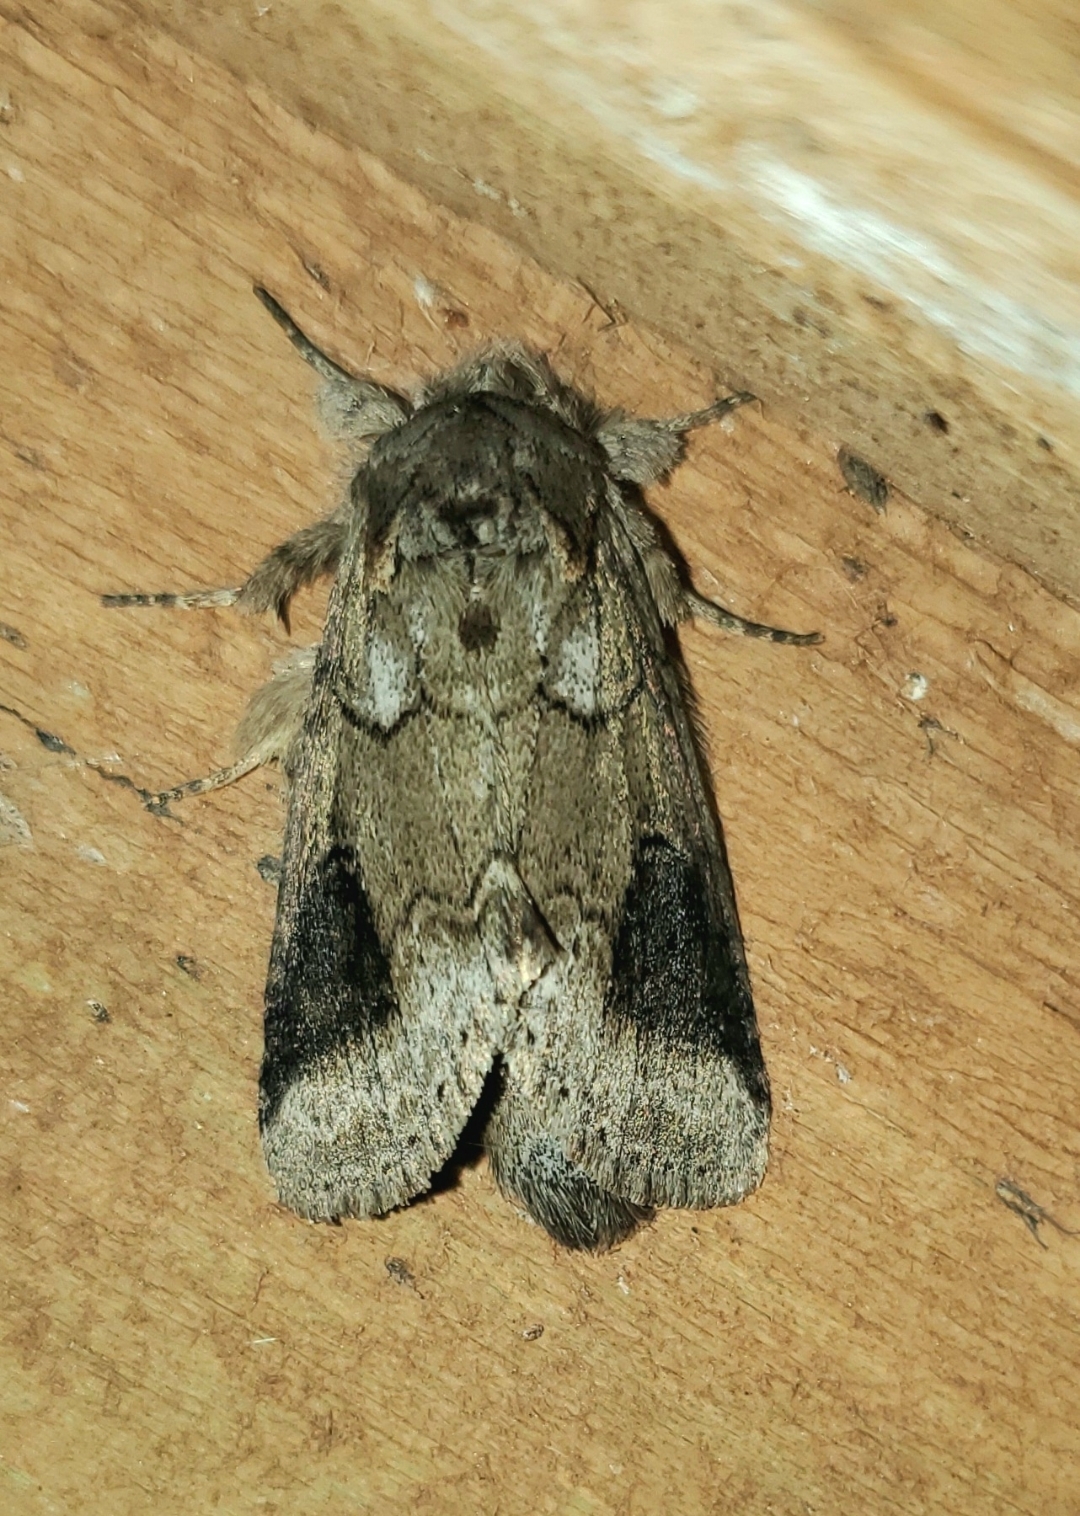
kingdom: Animalia
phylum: Arthropoda
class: Insecta
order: Lepidoptera
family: Notodontidae
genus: Lochmaeus
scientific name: Lochmaeus bilineata
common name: Double-lined prominent
